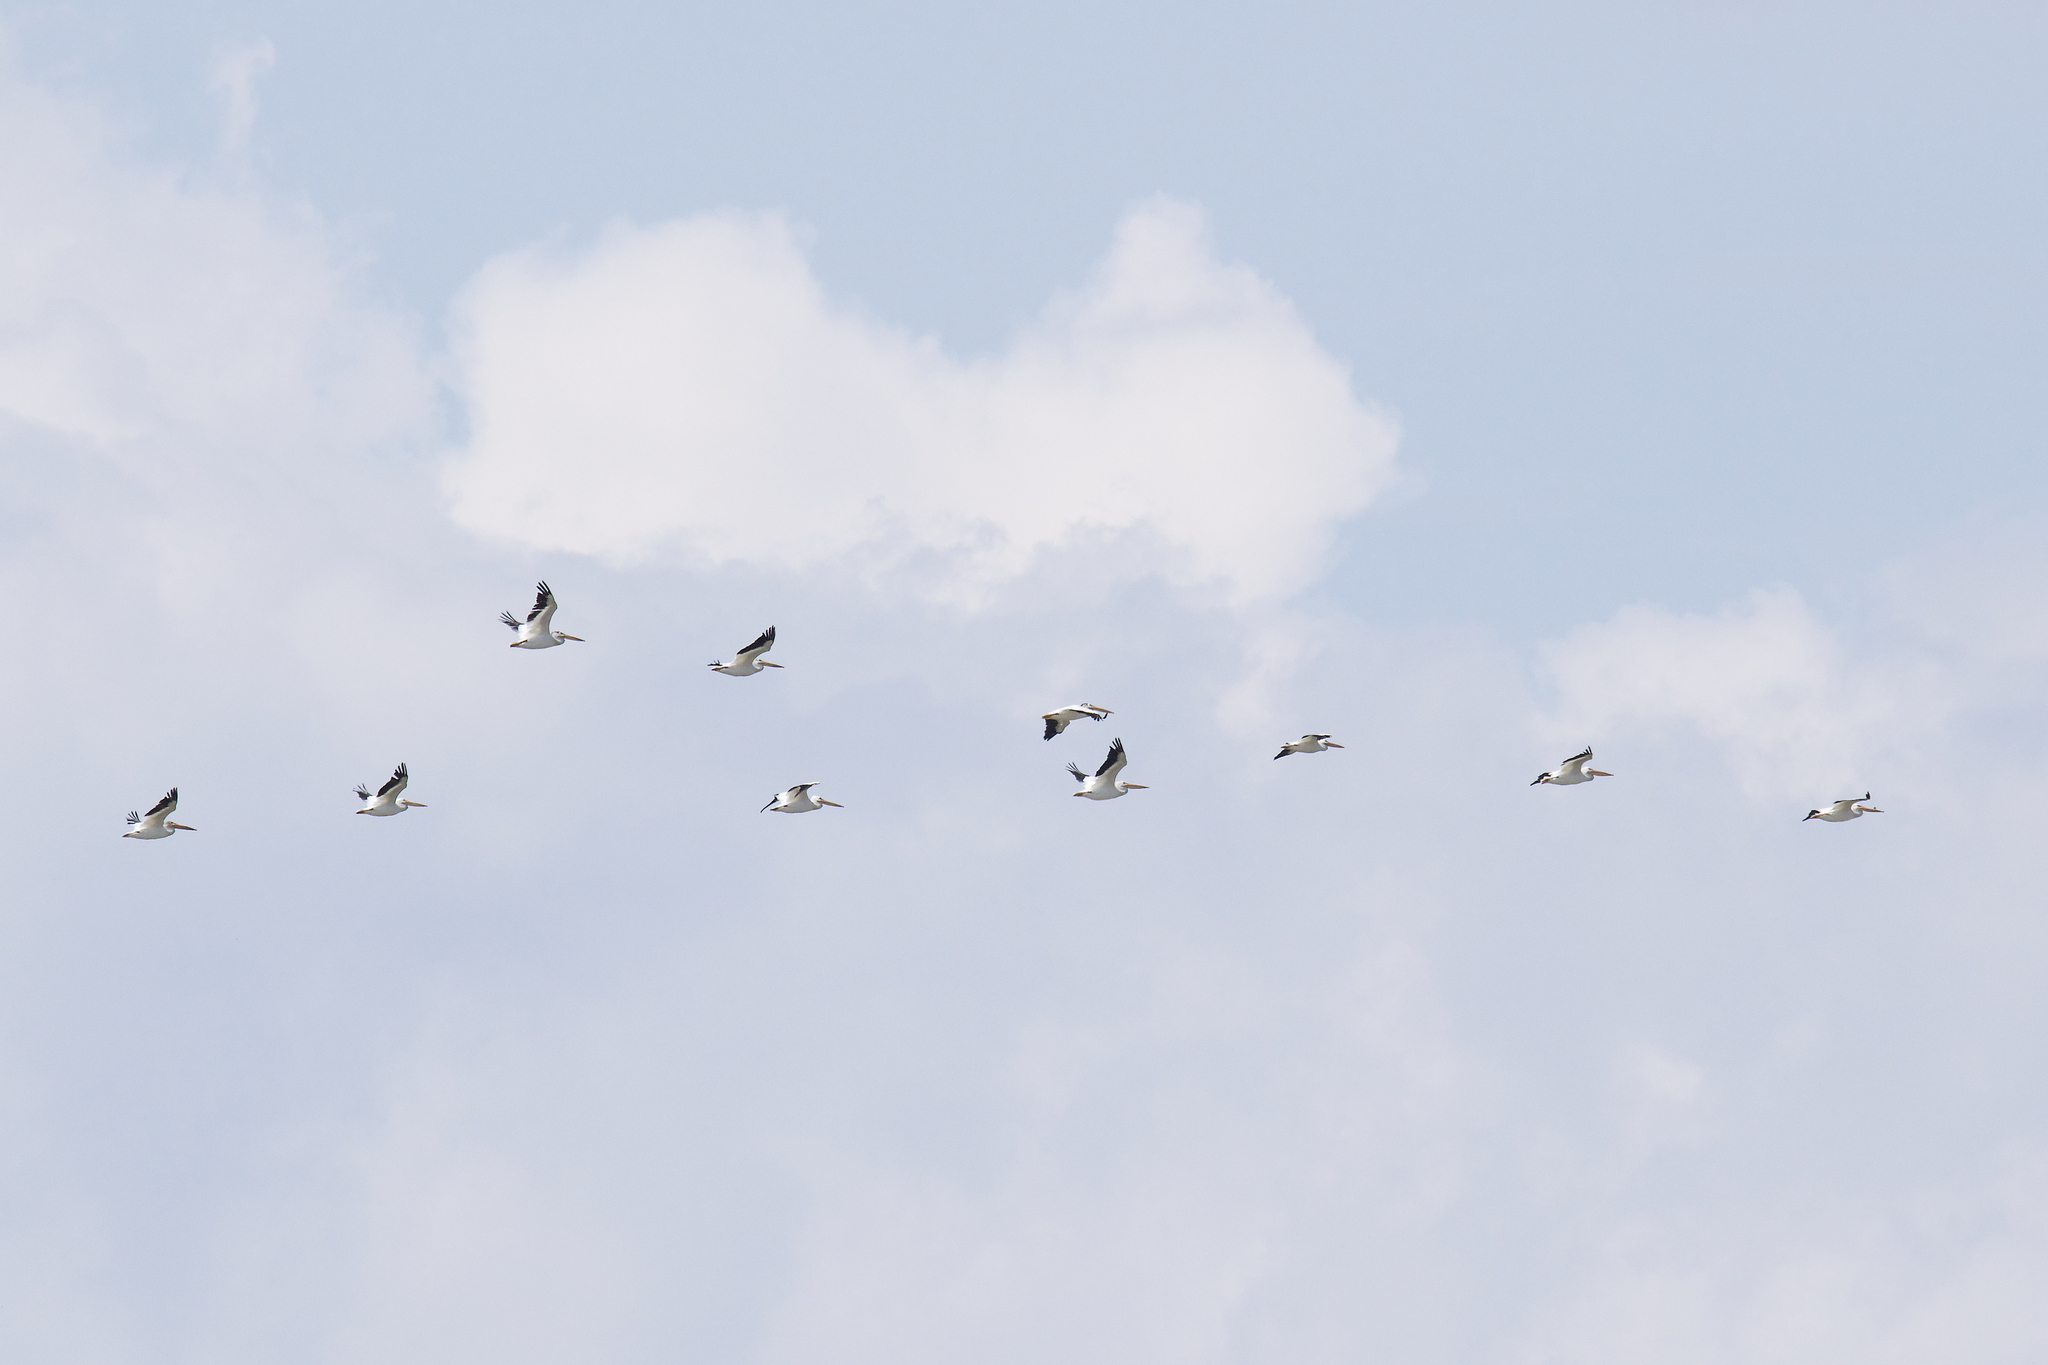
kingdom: Animalia
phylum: Chordata
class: Aves
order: Pelecaniformes
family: Pelecanidae
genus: Pelecanus
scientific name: Pelecanus erythrorhynchos
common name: American white pelican
